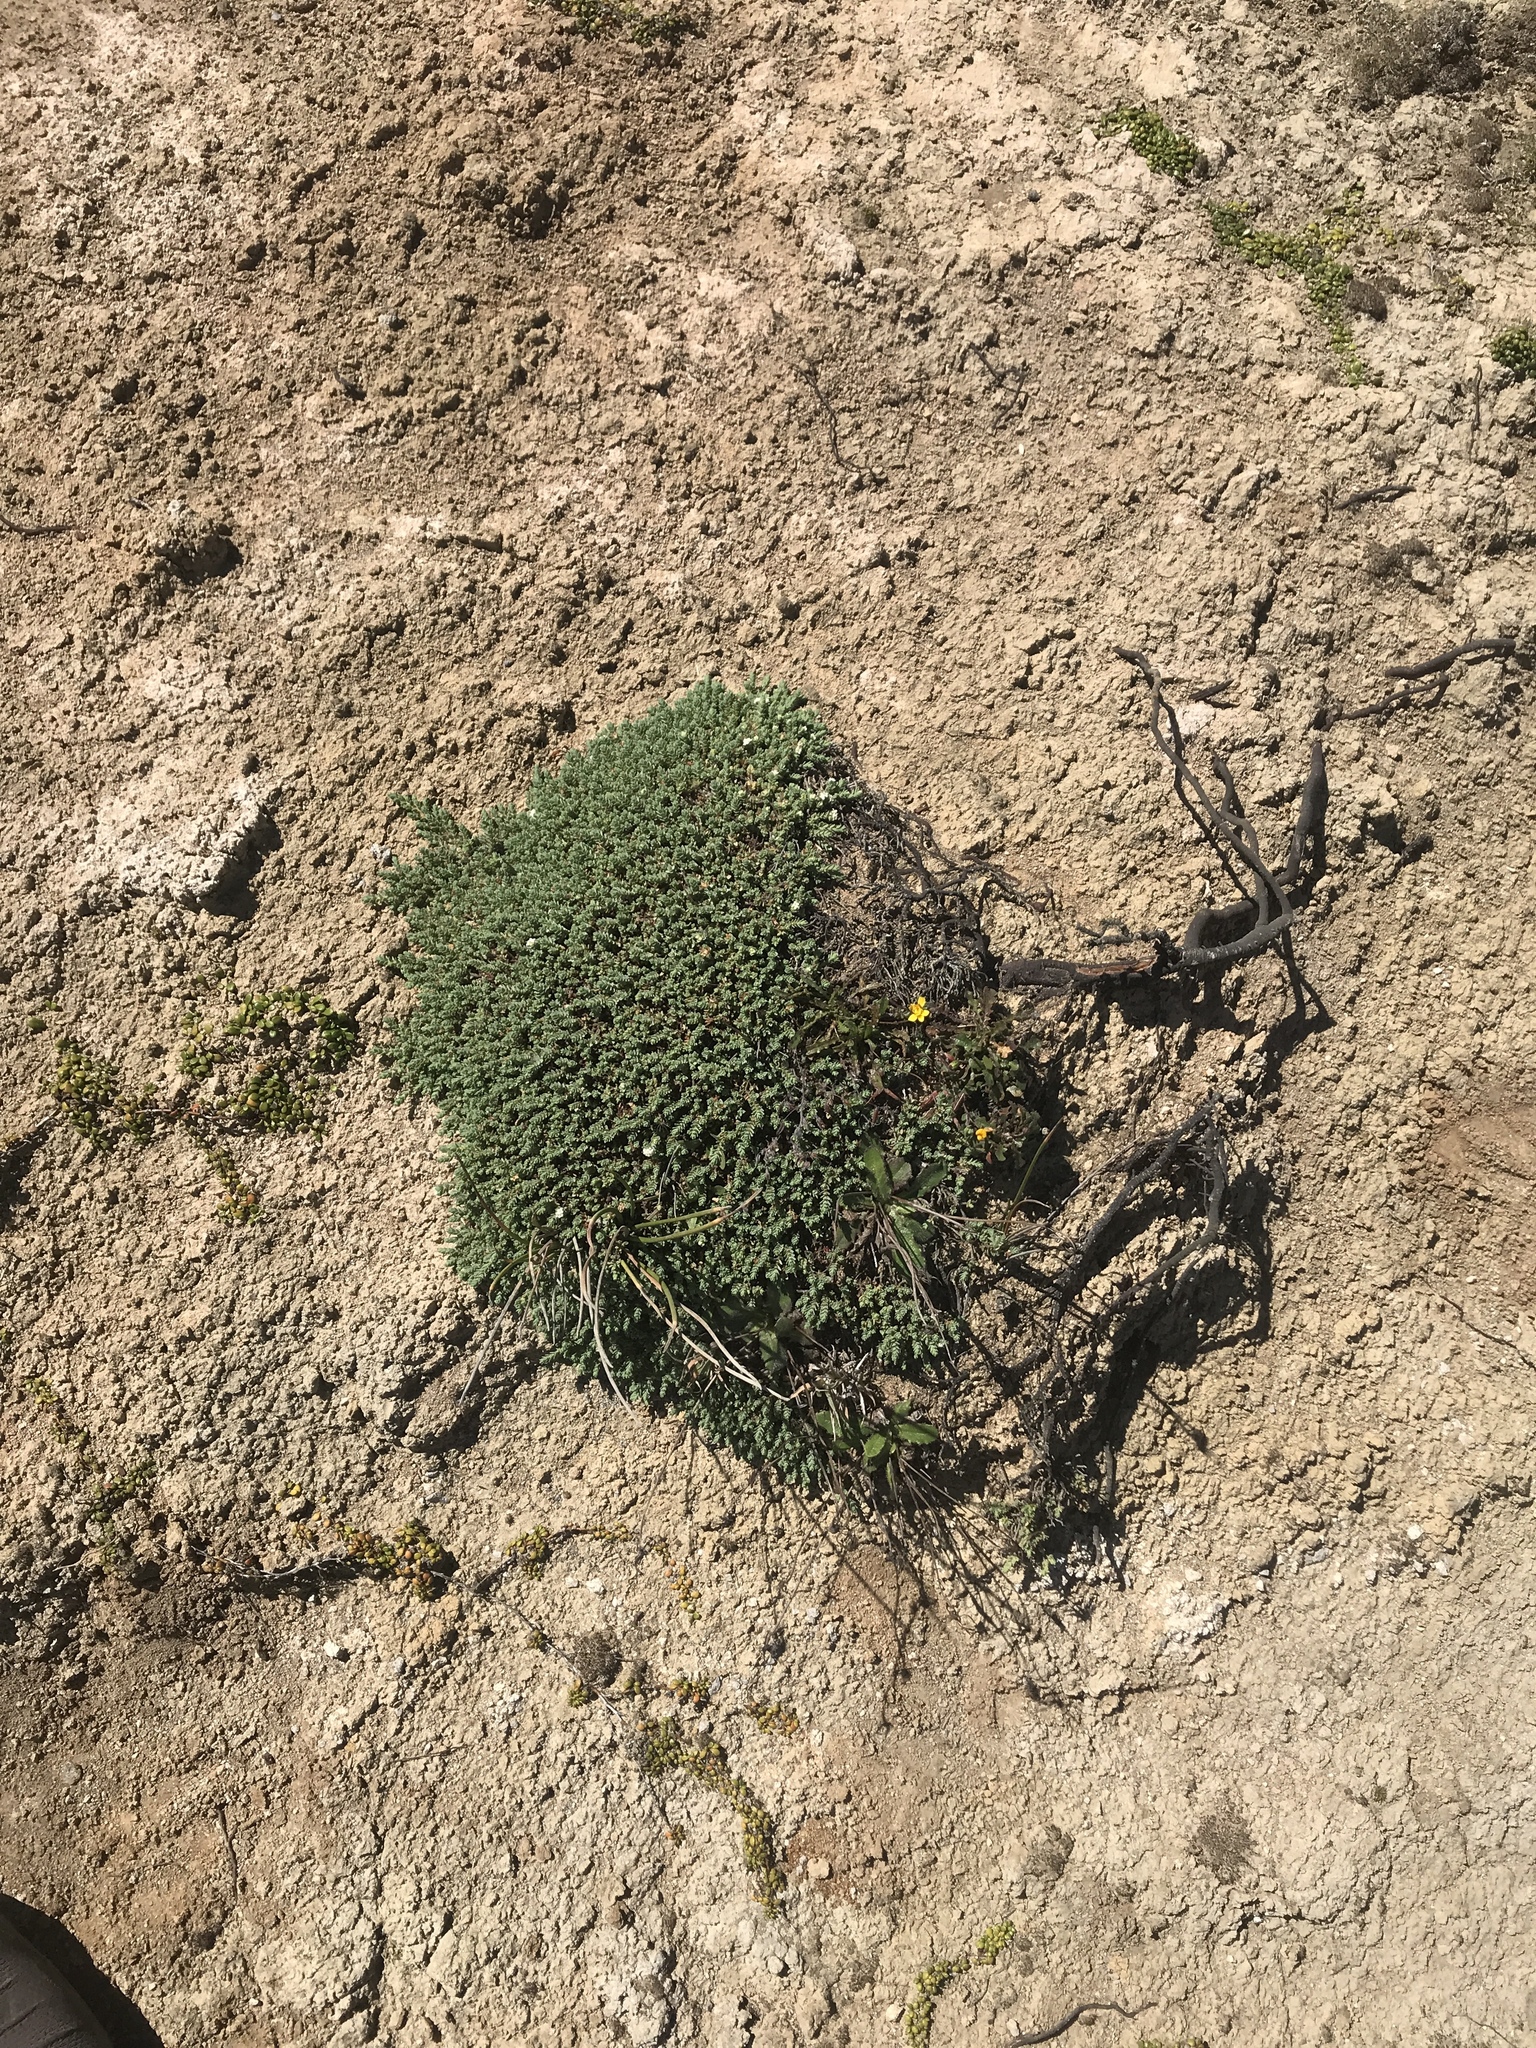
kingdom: Plantae
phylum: Tracheophyta
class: Magnoliopsida
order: Malvales
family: Thymelaeaceae
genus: Pimelea
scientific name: Pimelea carnosa
